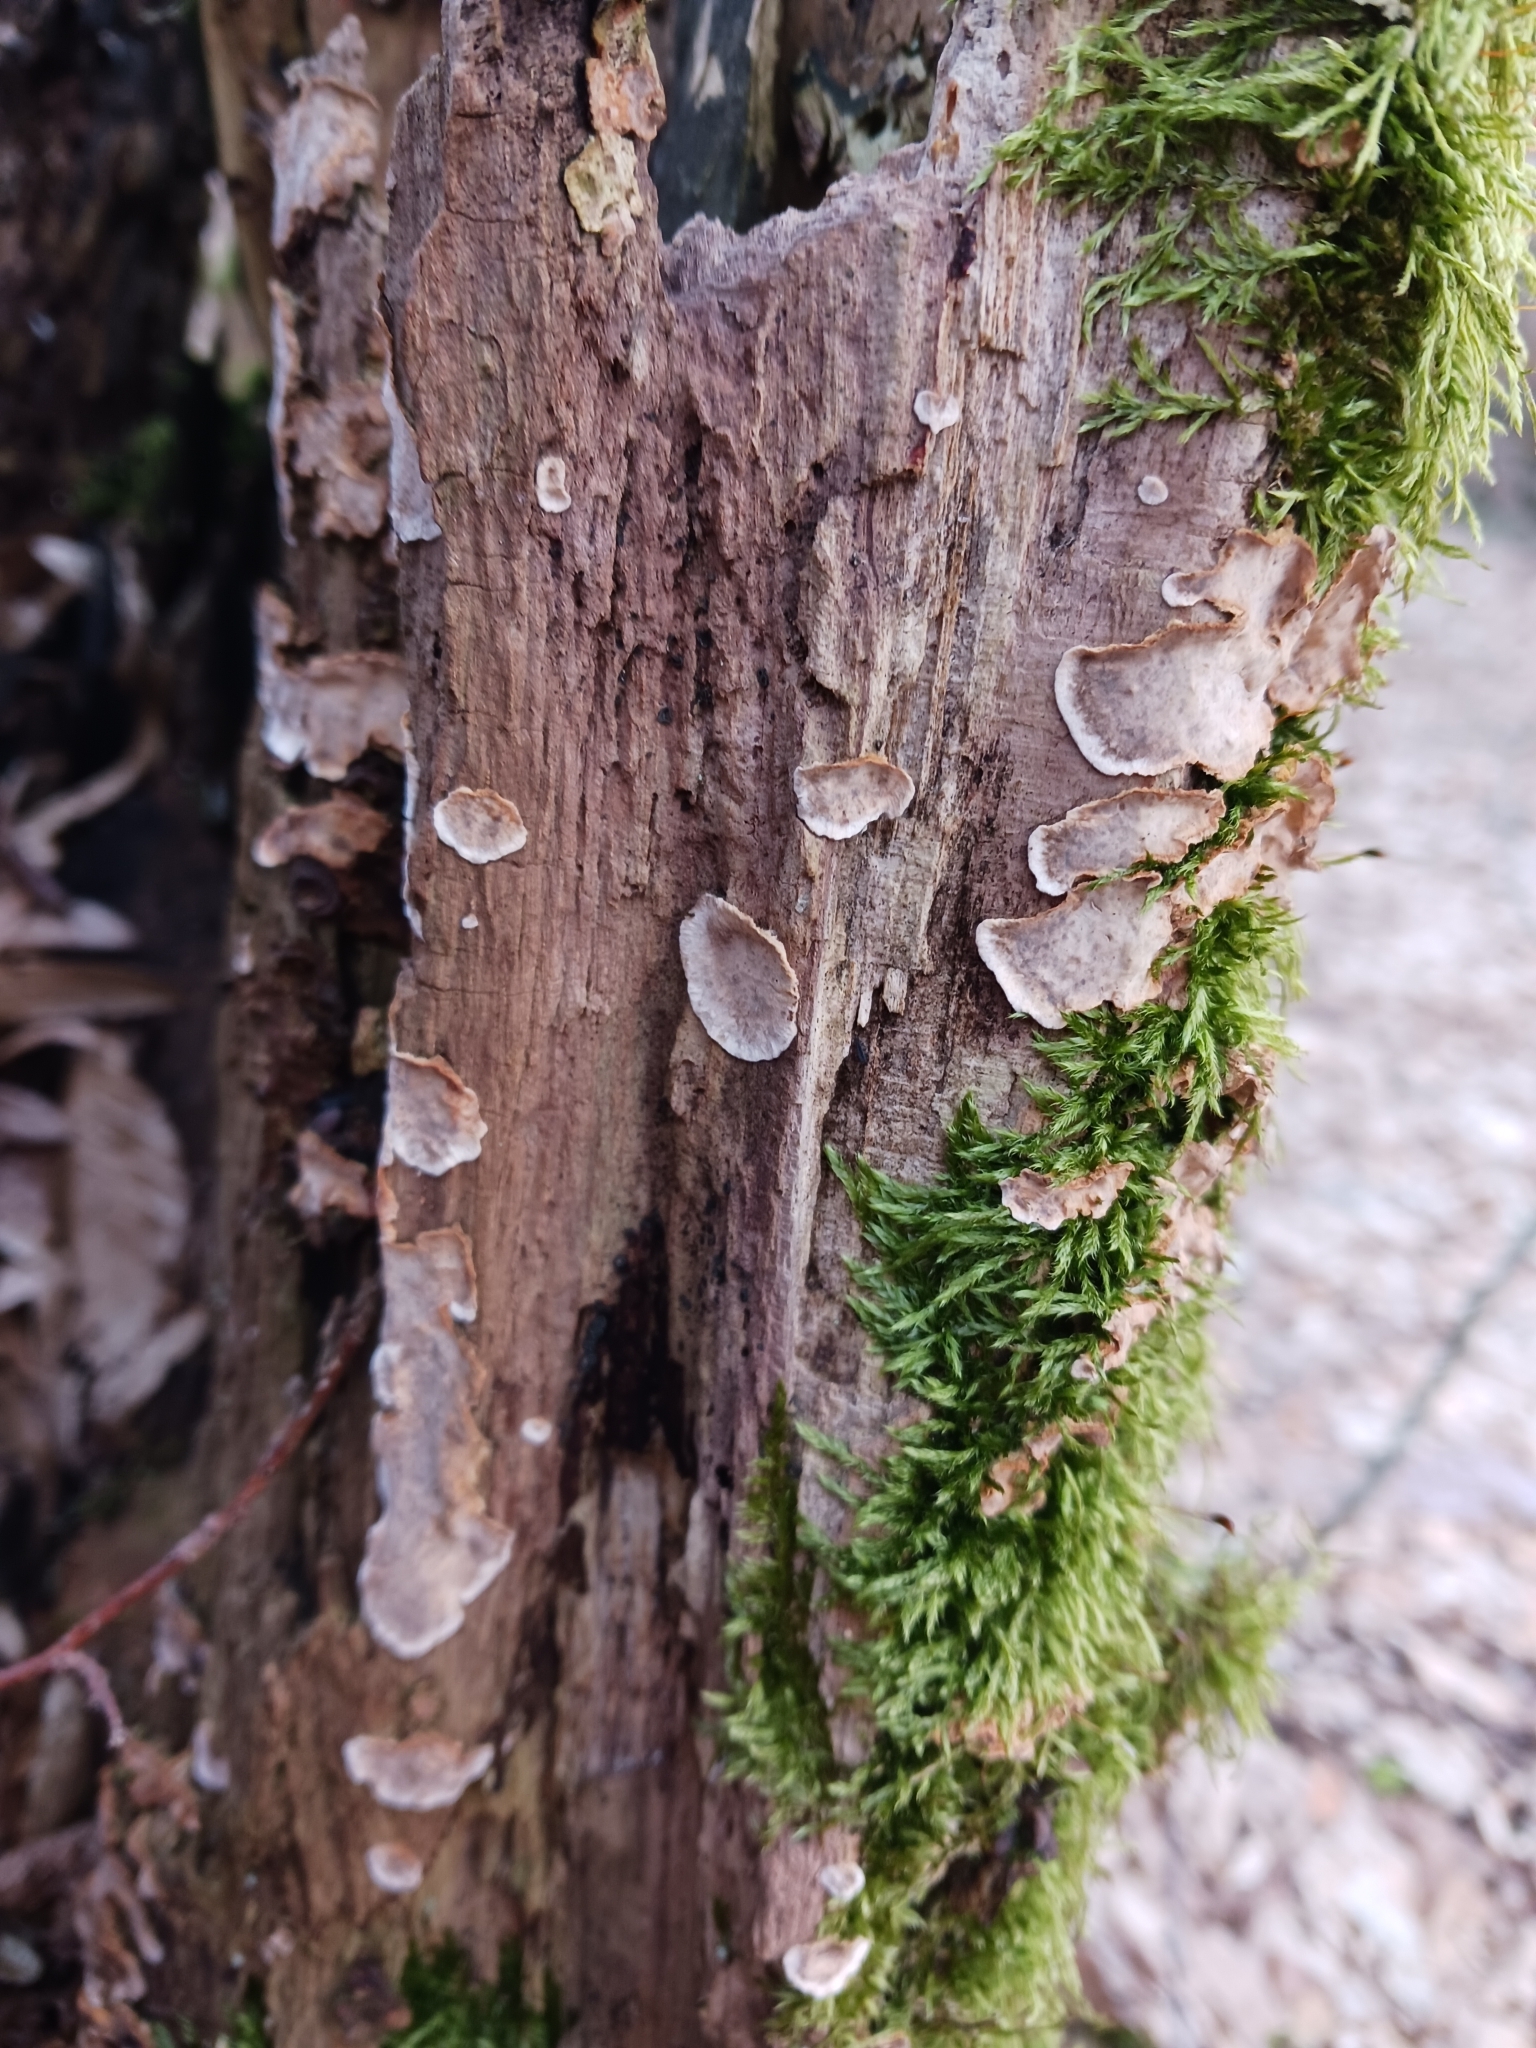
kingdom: Fungi
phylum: Basidiomycota
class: Agaricomycetes
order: Russulales
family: Stereaceae
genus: Stereum
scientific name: Stereum rugosum
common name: Bleeding broadleaf crust
